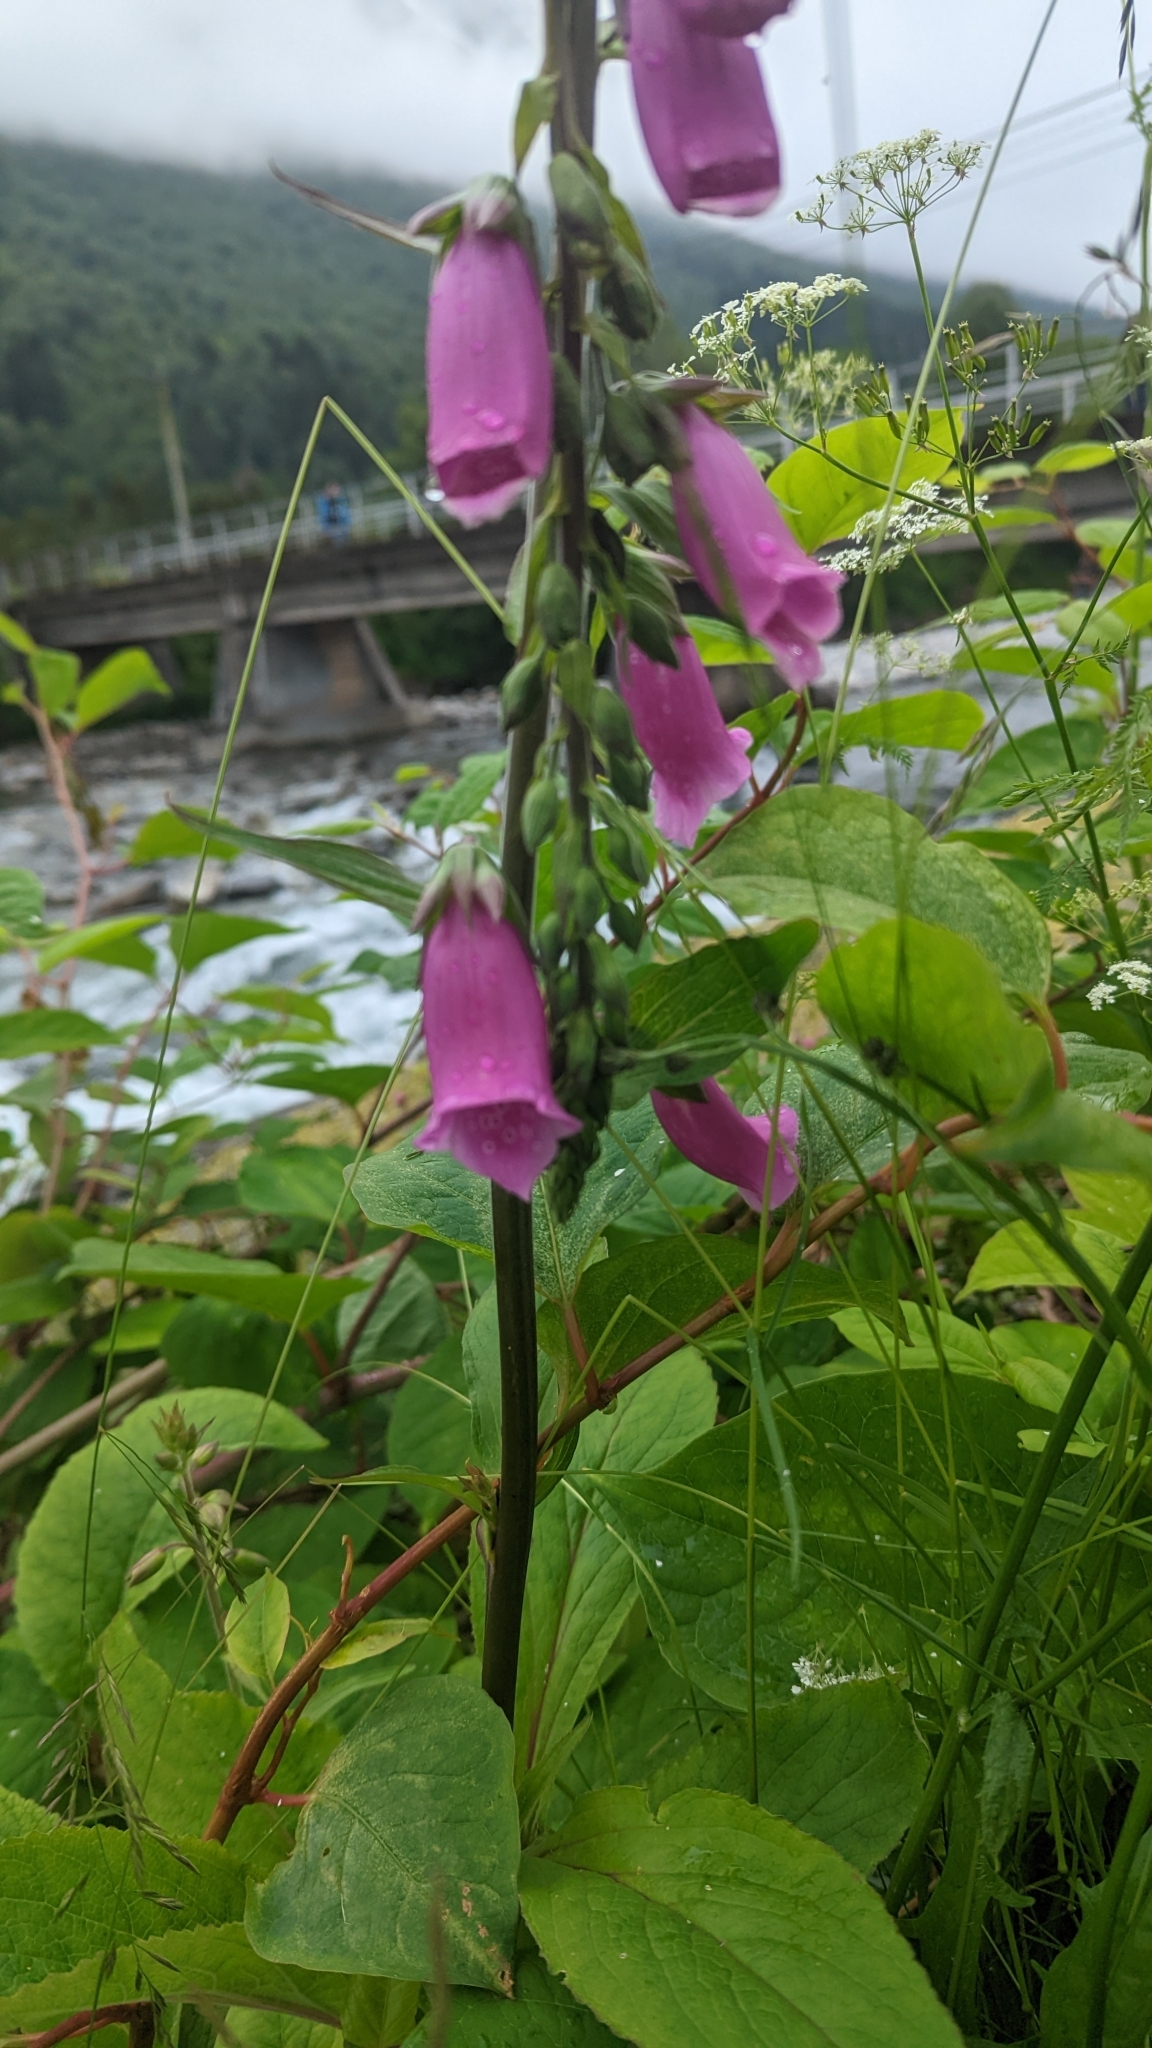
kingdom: Plantae
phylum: Tracheophyta
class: Magnoliopsida
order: Lamiales
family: Plantaginaceae
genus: Digitalis
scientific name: Digitalis purpurea
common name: Foxglove
